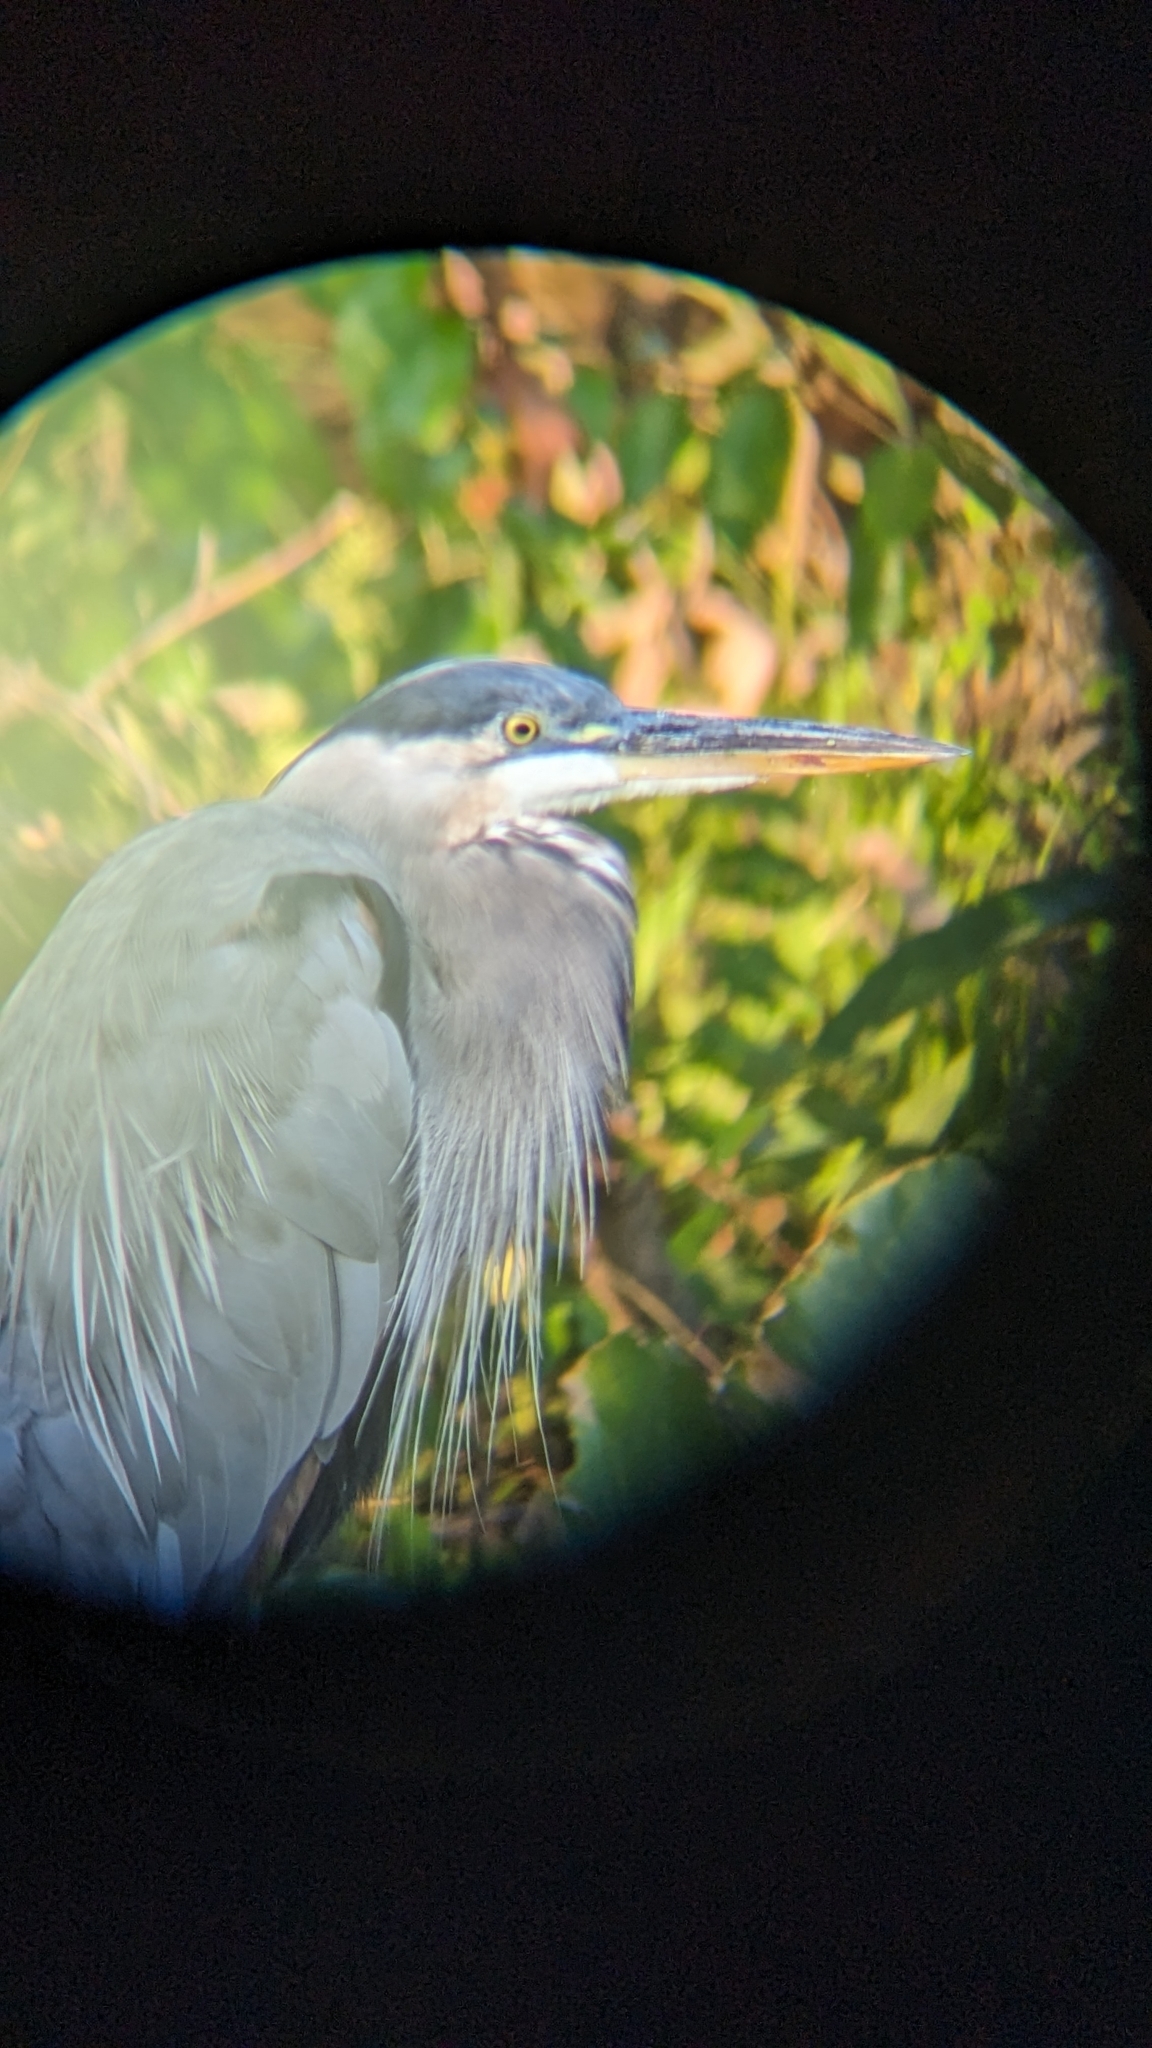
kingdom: Animalia
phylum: Chordata
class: Aves
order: Pelecaniformes
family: Ardeidae
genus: Ardea
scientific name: Ardea herodias
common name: Great blue heron
